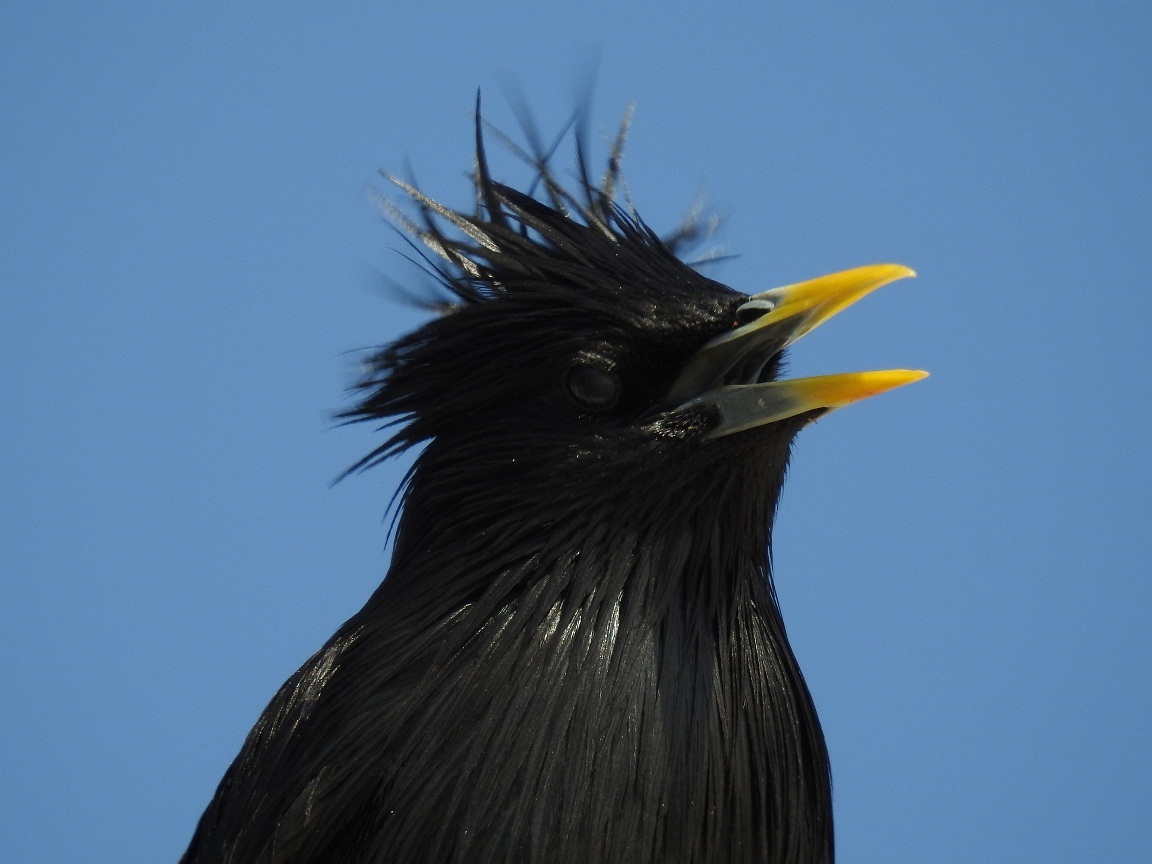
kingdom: Animalia
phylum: Chordata
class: Aves
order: Passeriformes
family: Sturnidae
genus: Sturnus
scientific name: Sturnus unicolor
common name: Spotless starling
